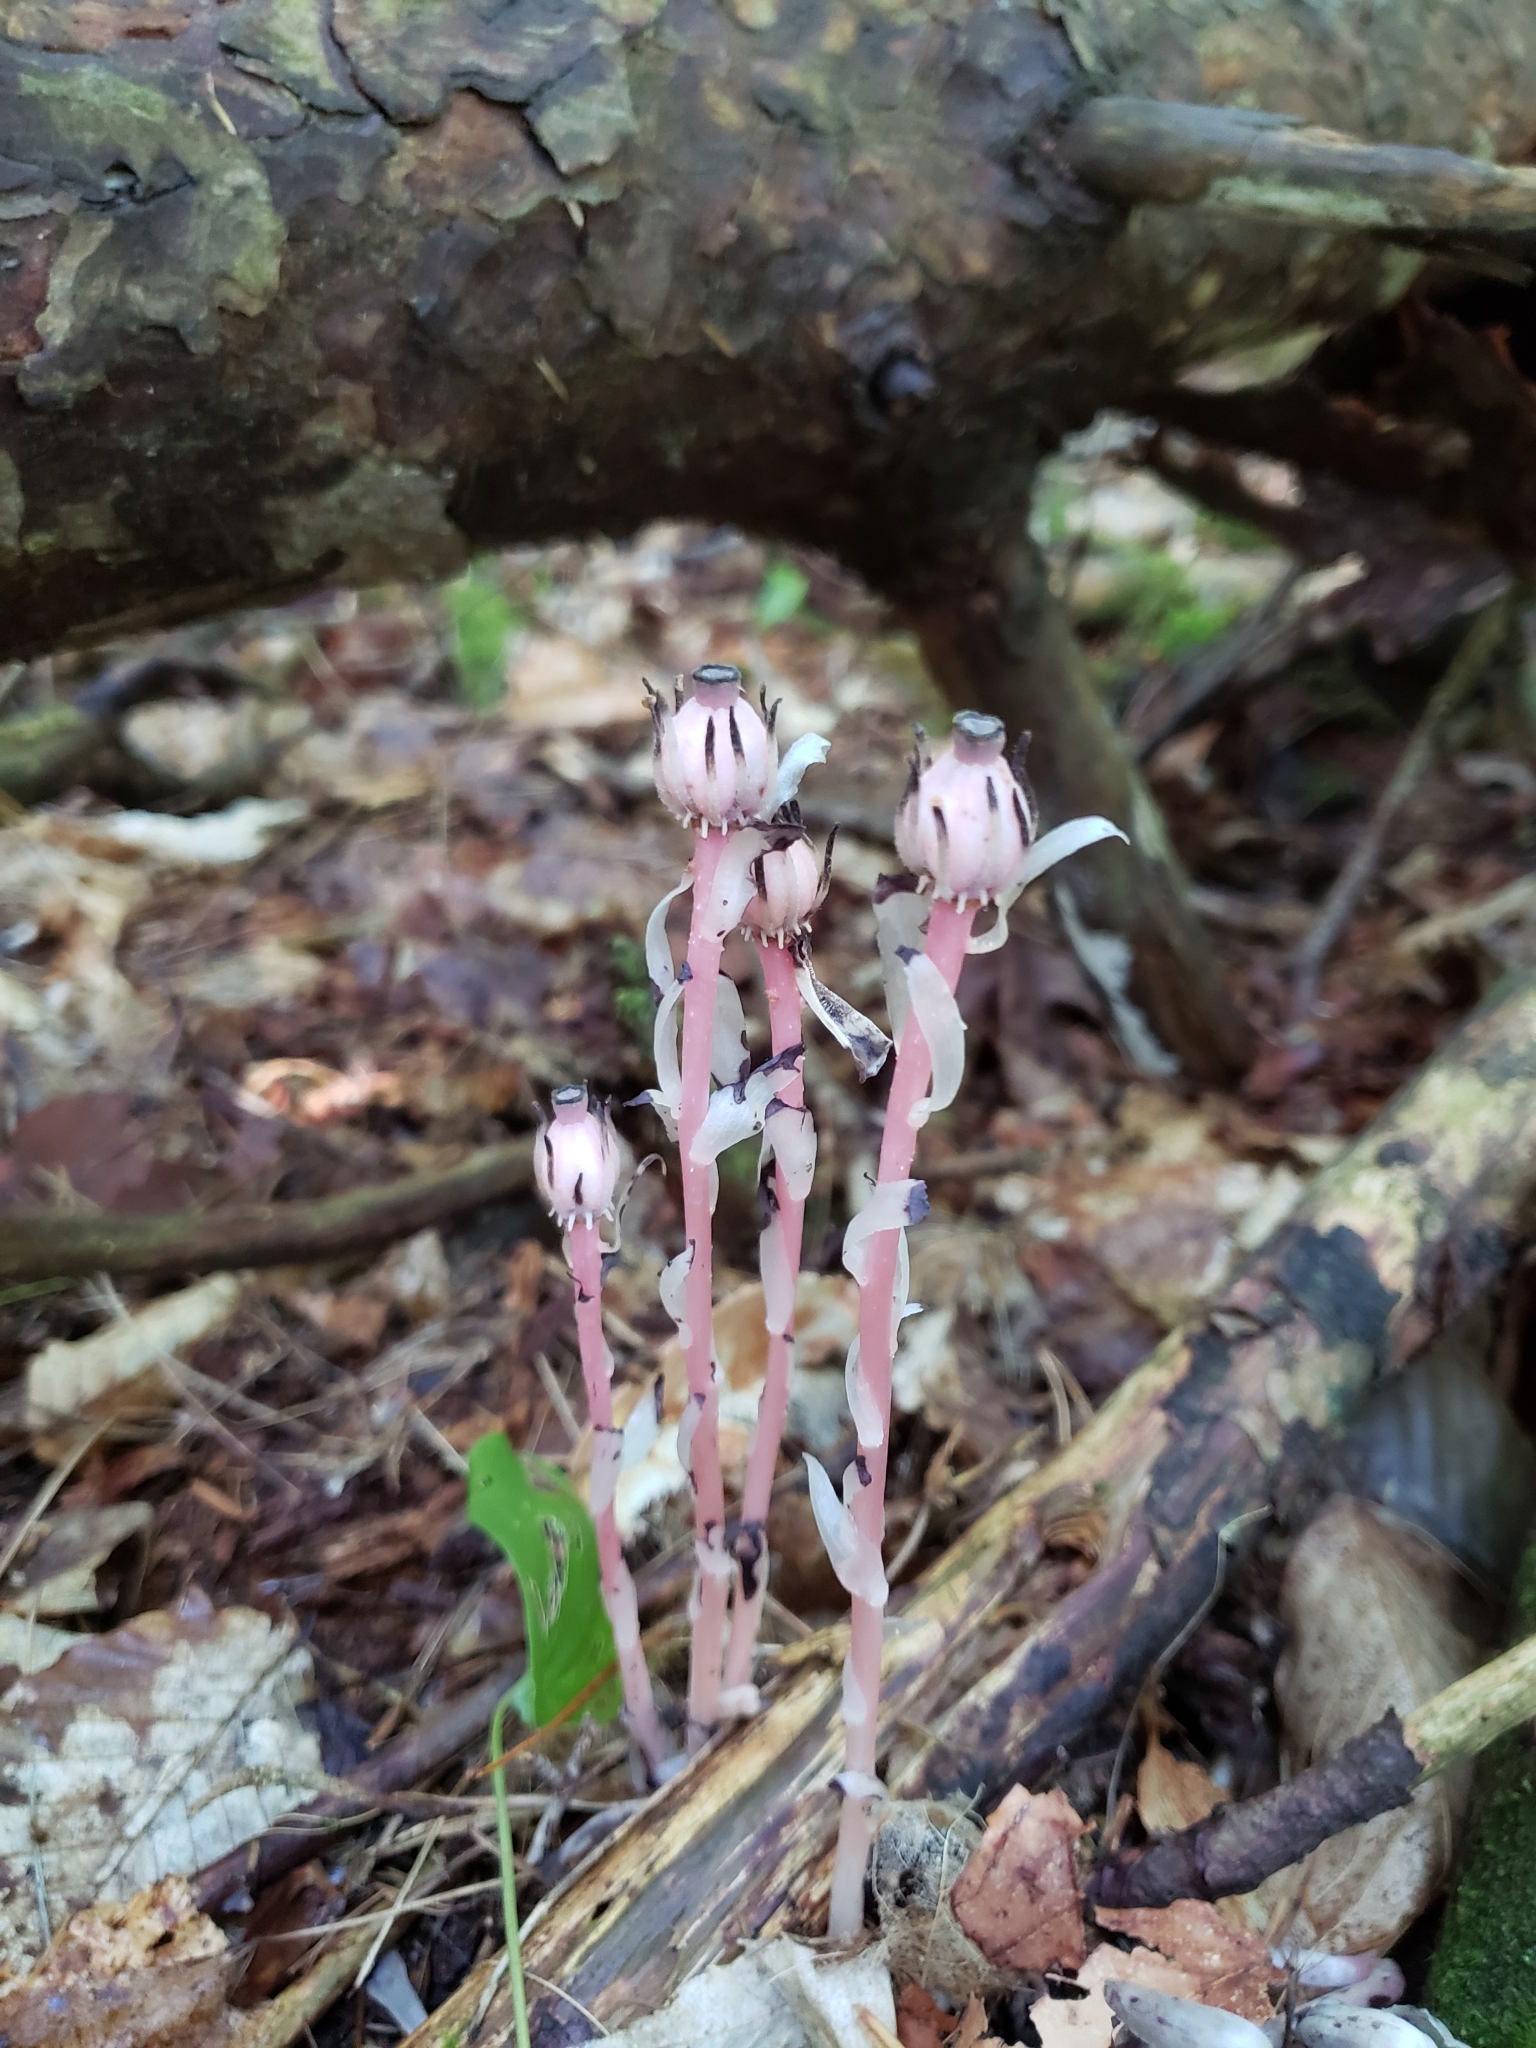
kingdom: Plantae
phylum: Tracheophyta
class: Magnoliopsida
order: Ericales
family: Ericaceae
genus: Monotropa
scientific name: Monotropa uniflora
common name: Convulsion root
